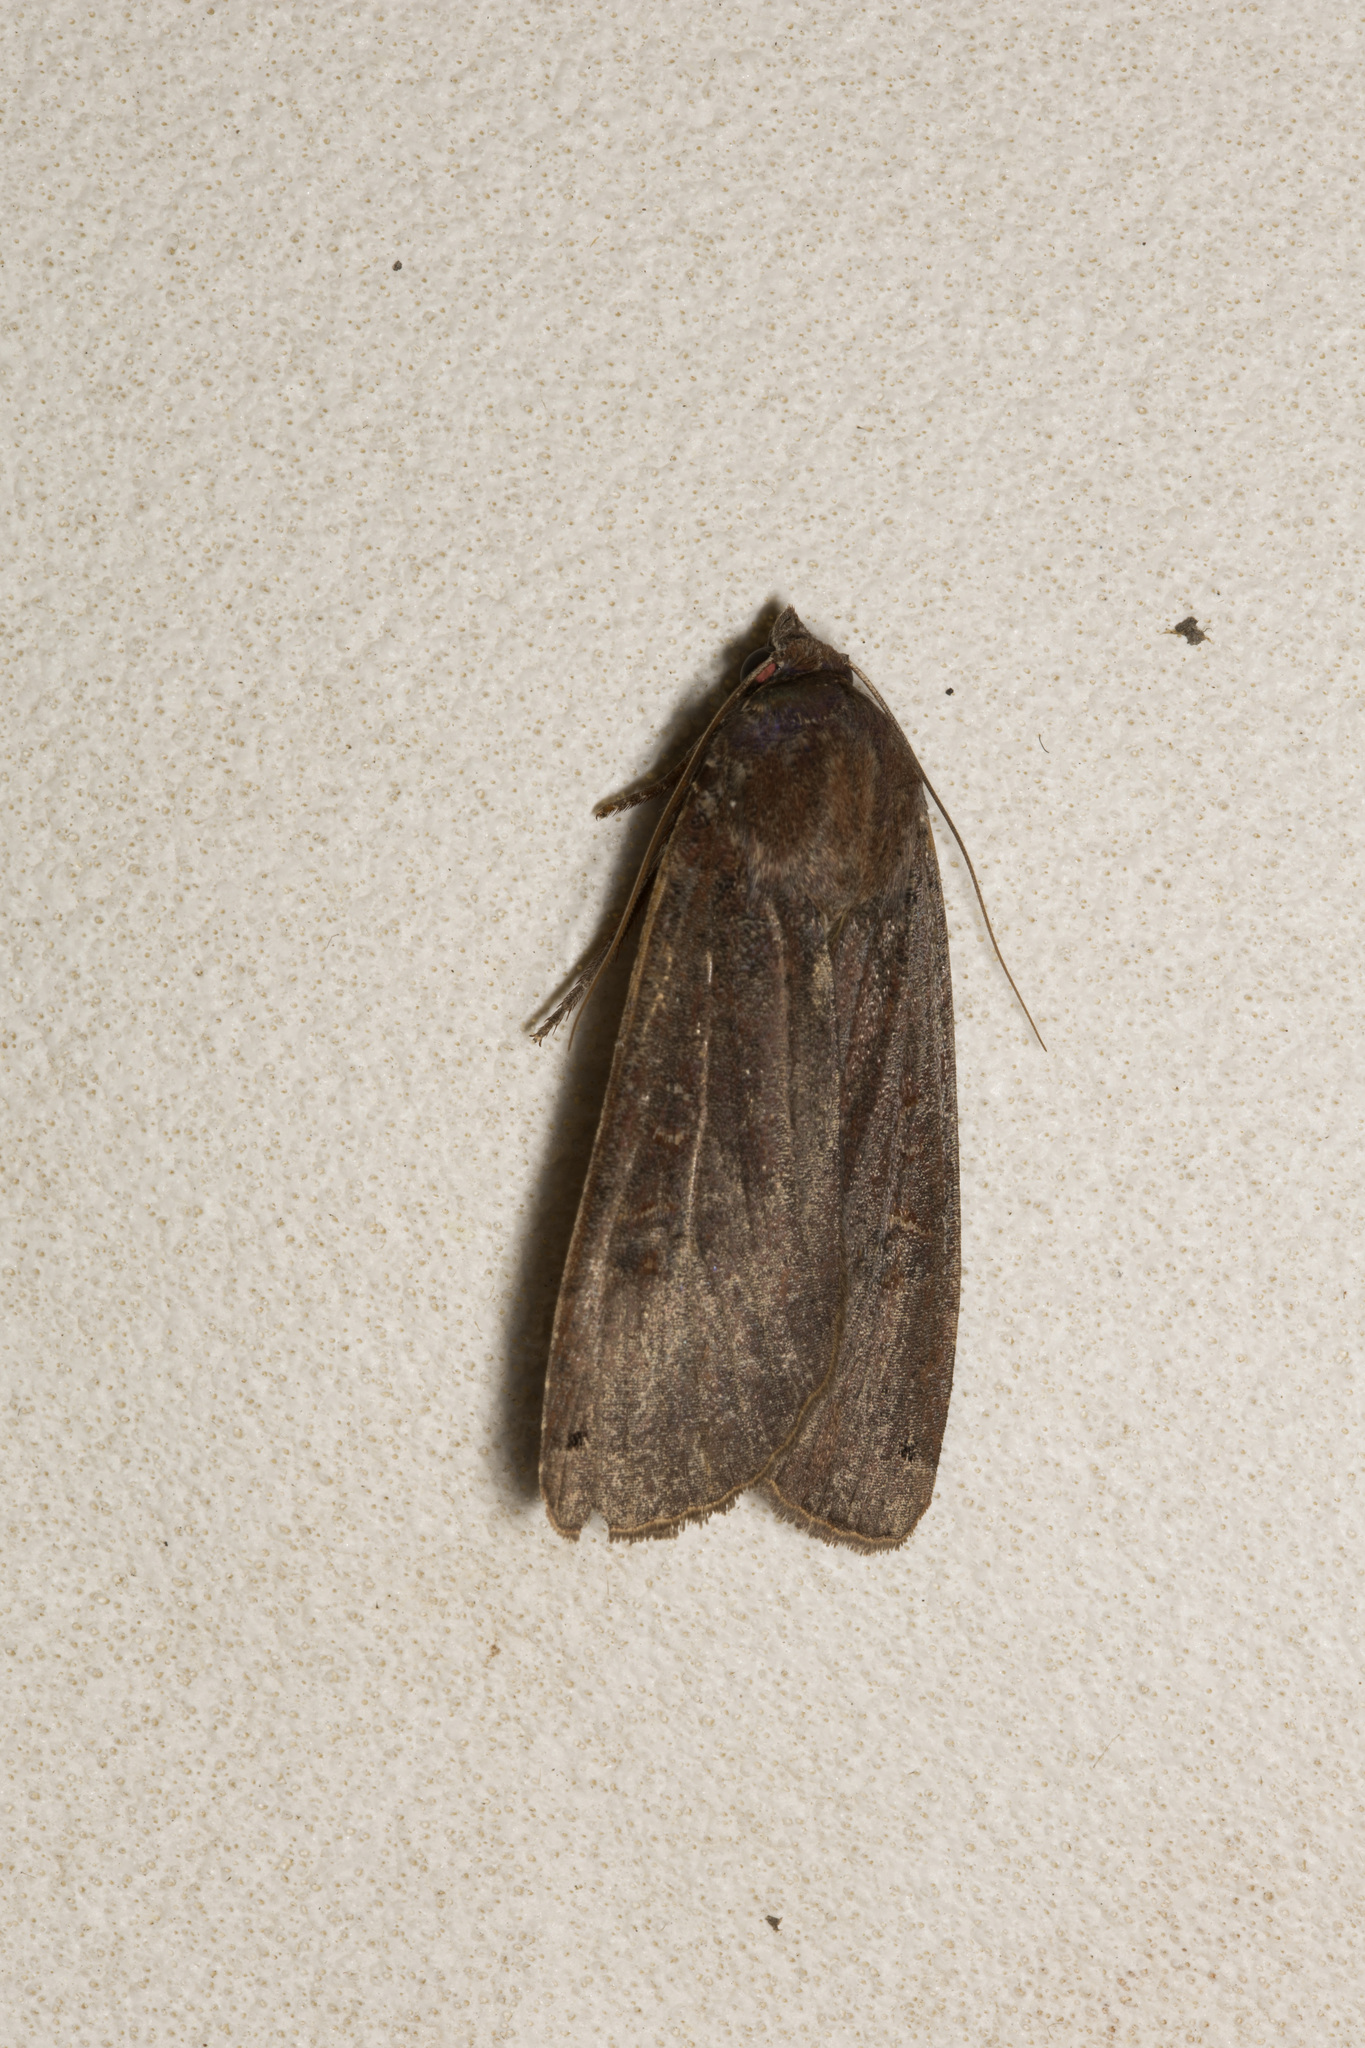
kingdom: Animalia
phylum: Arthropoda
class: Insecta
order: Lepidoptera
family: Noctuidae
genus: Noctua
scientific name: Noctua pronuba
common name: Large yellow underwing
